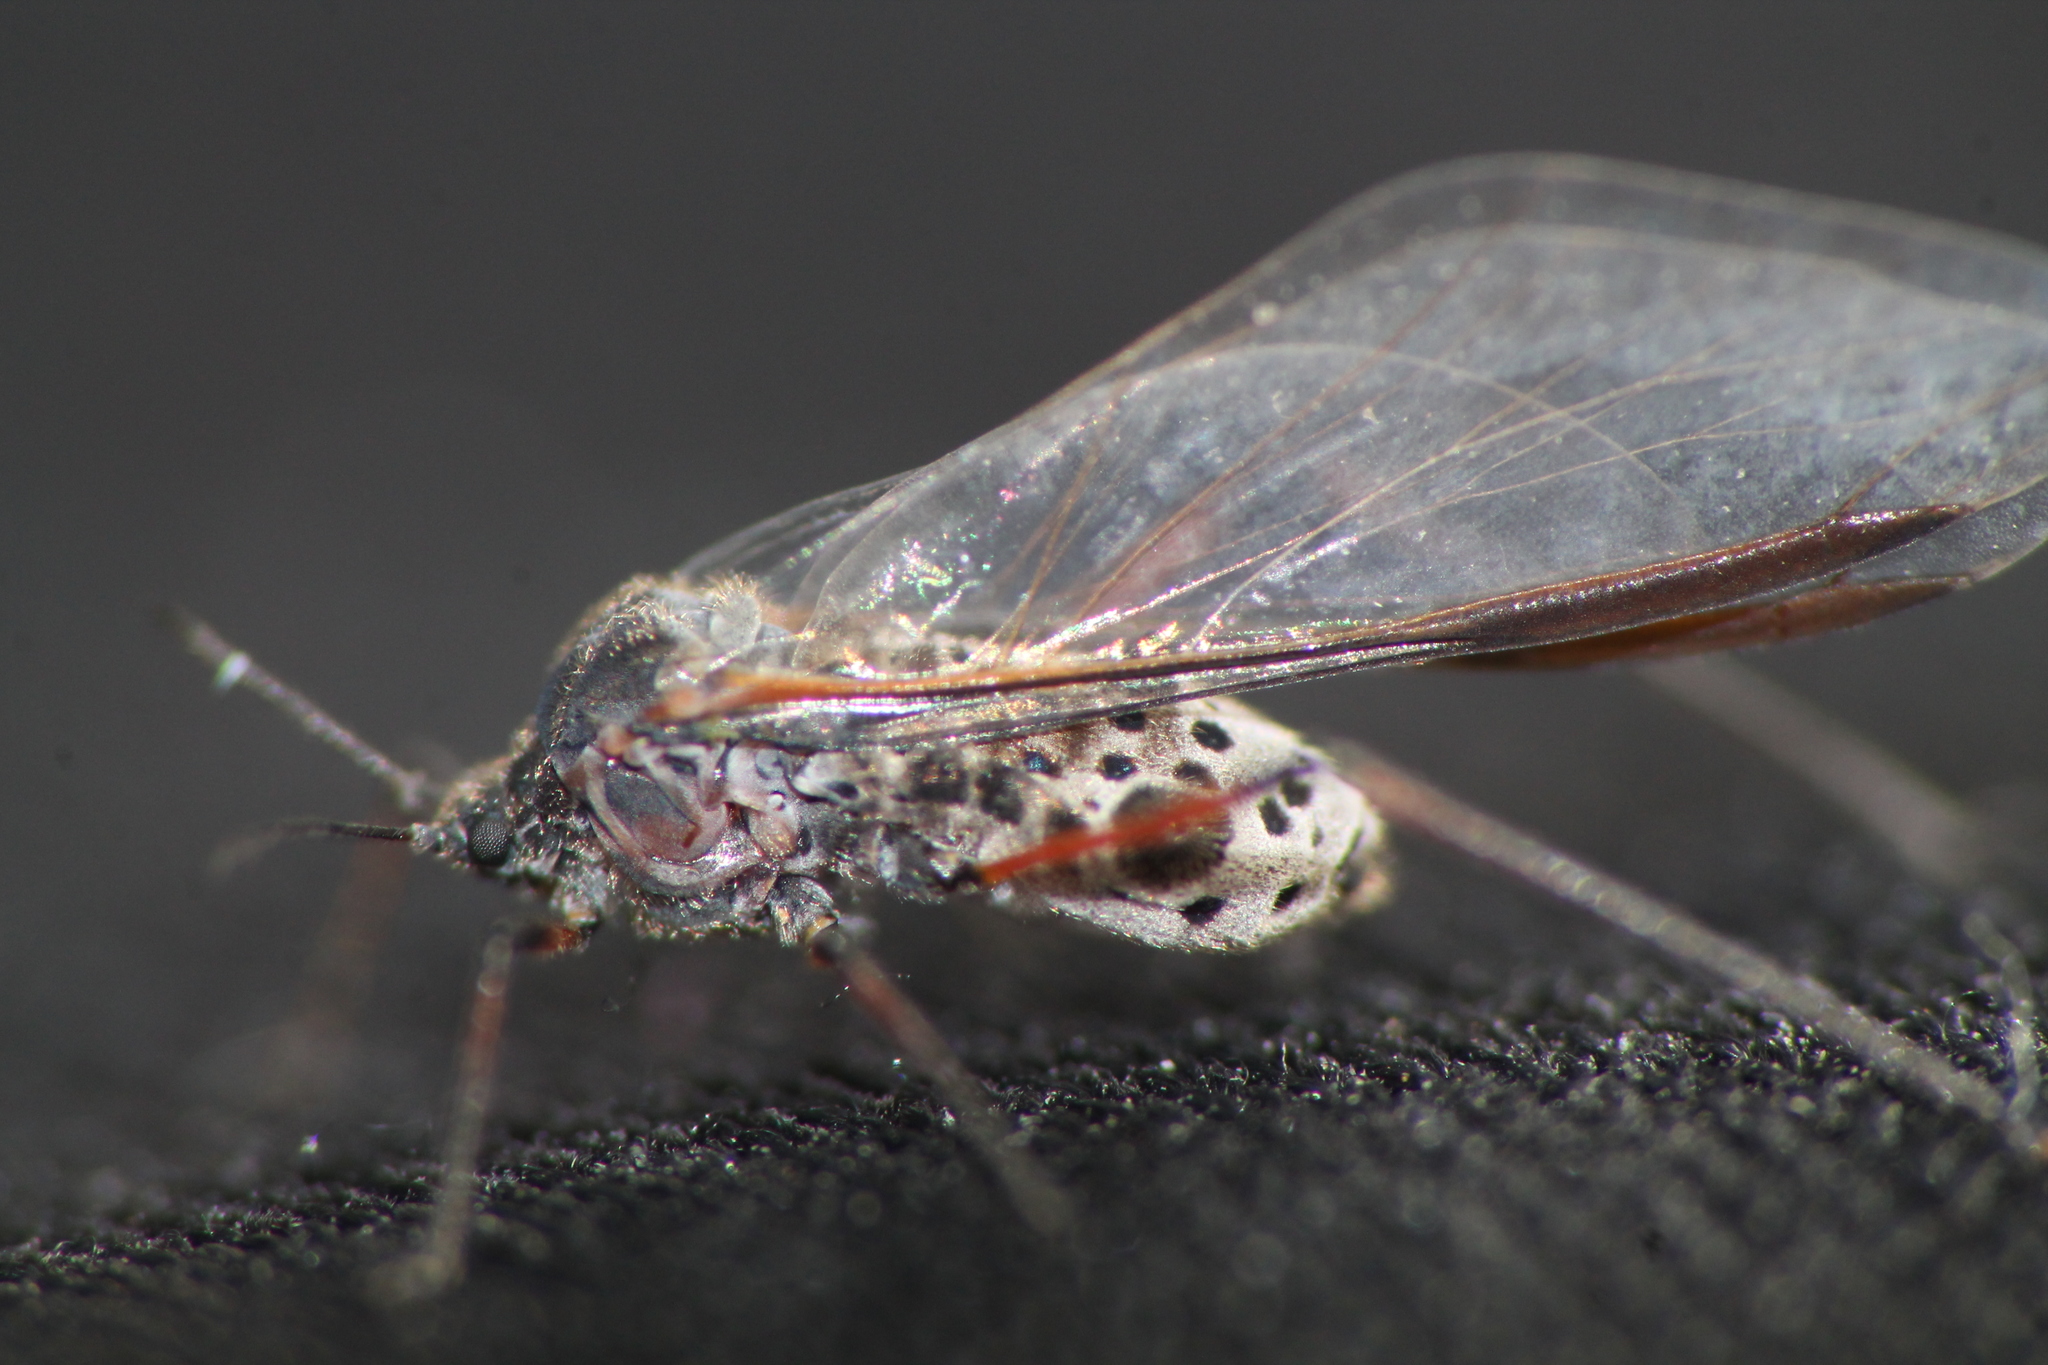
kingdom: Animalia
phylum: Arthropoda
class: Insecta
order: Hemiptera
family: Aphididae
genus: Tuberolachnus
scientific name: Tuberolachnus salignus
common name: Giant willow aphid
